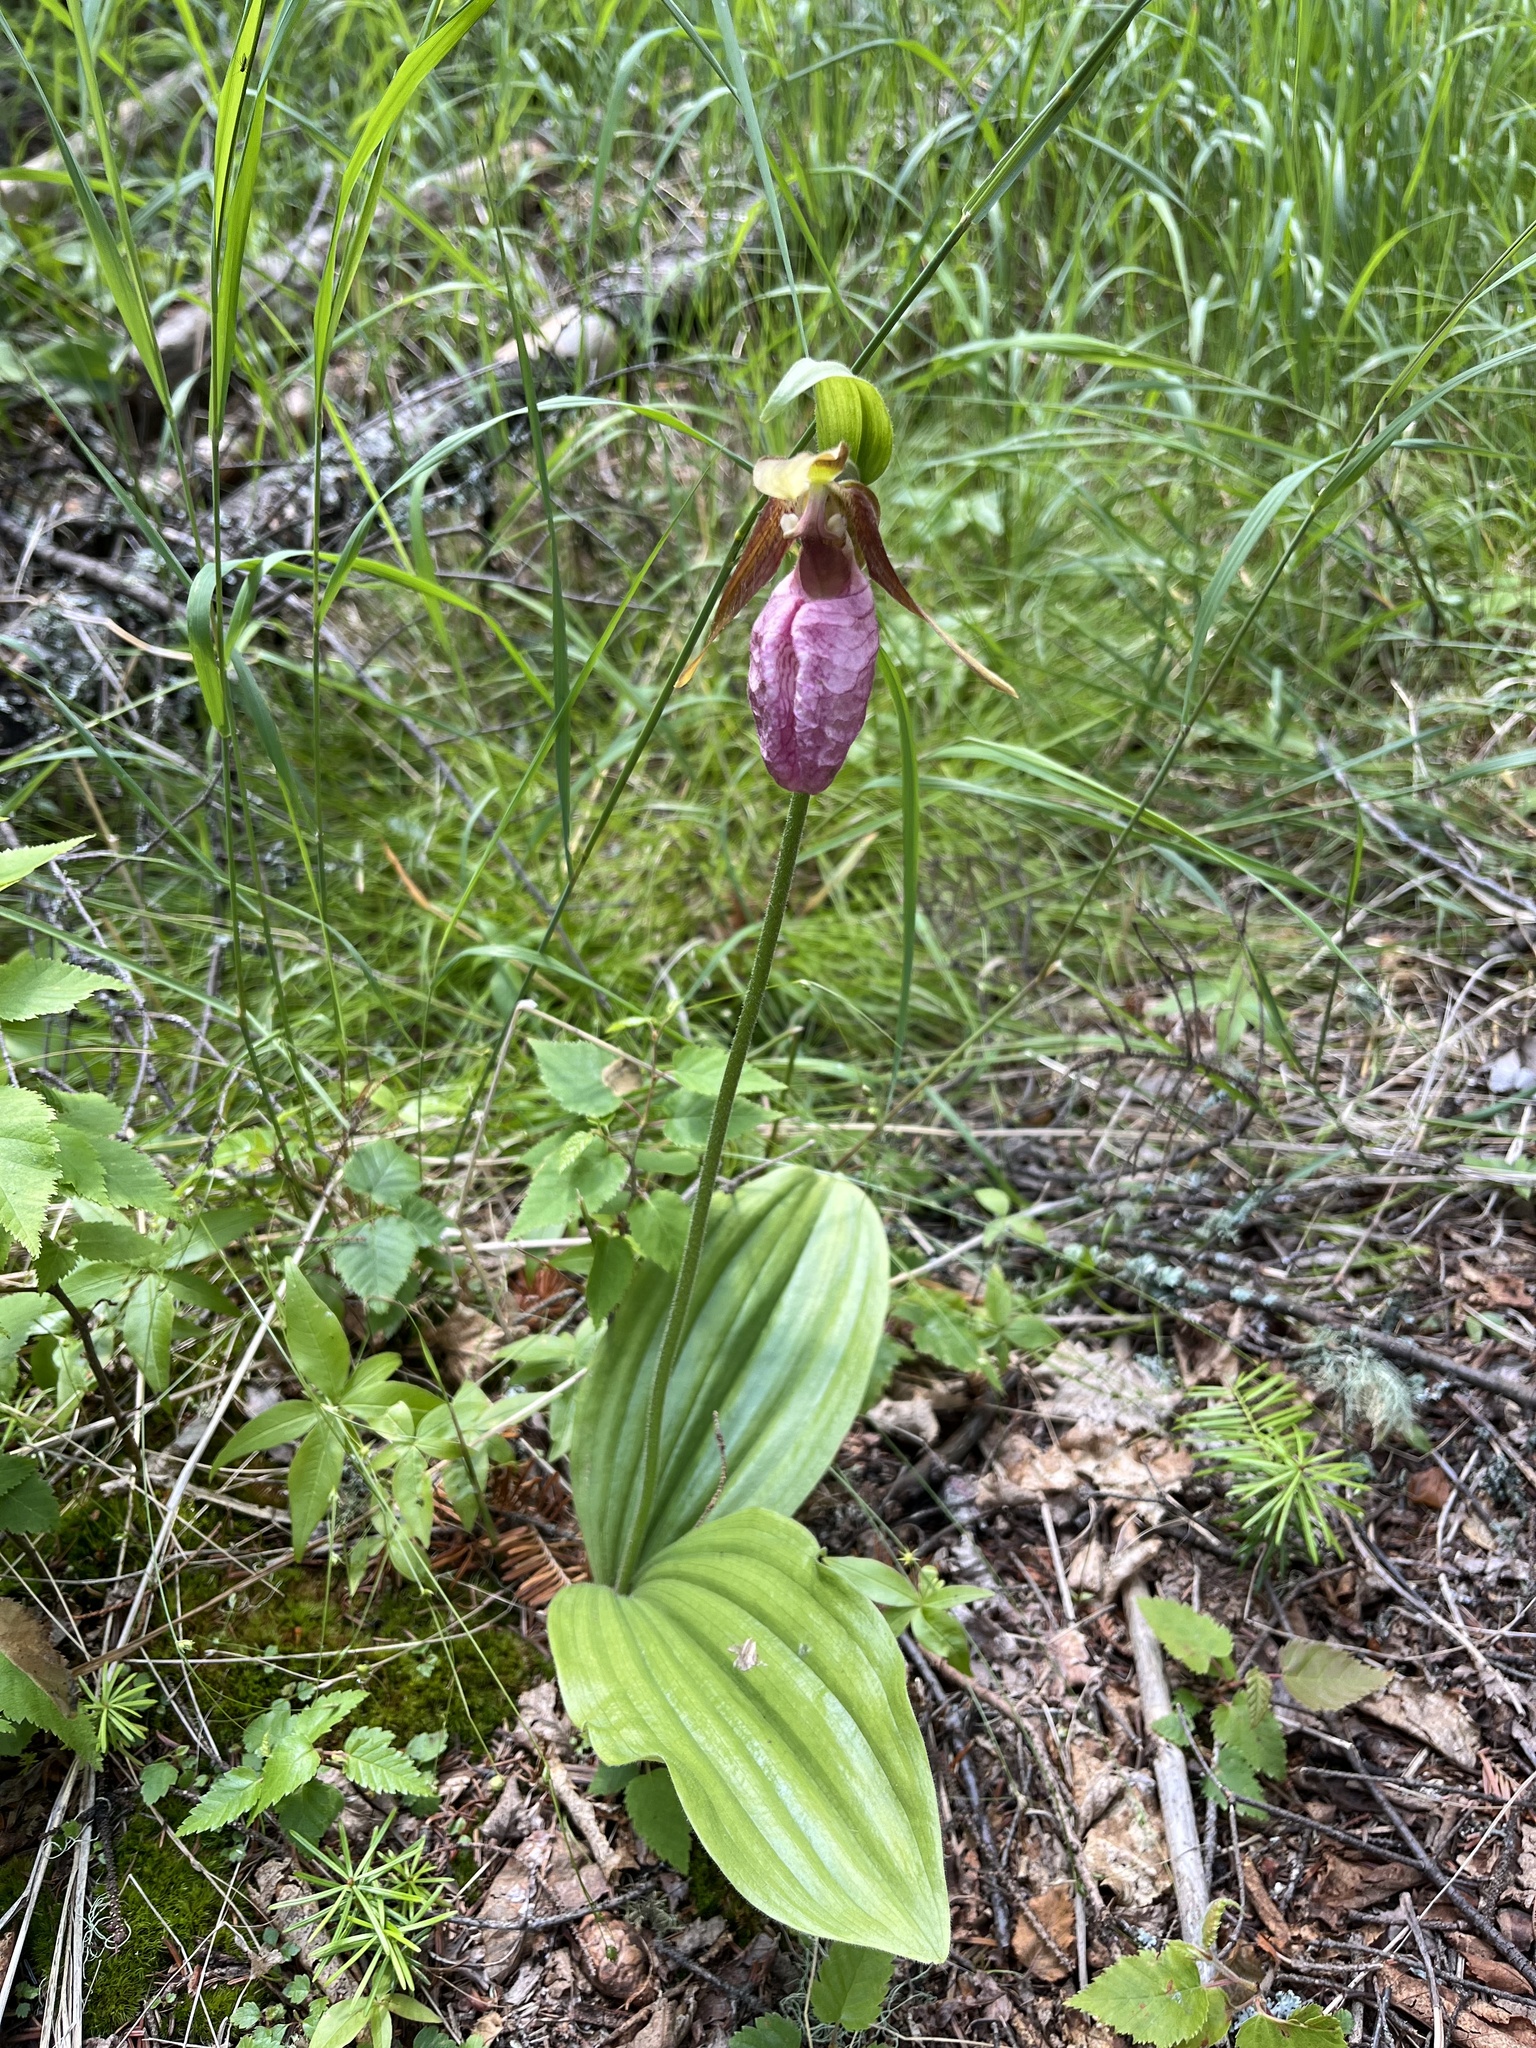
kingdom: Plantae
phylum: Tracheophyta
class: Liliopsida
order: Asparagales
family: Orchidaceae
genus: Cypripedium
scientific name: Cypripedium acaule
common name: Pink lady's-slipper
